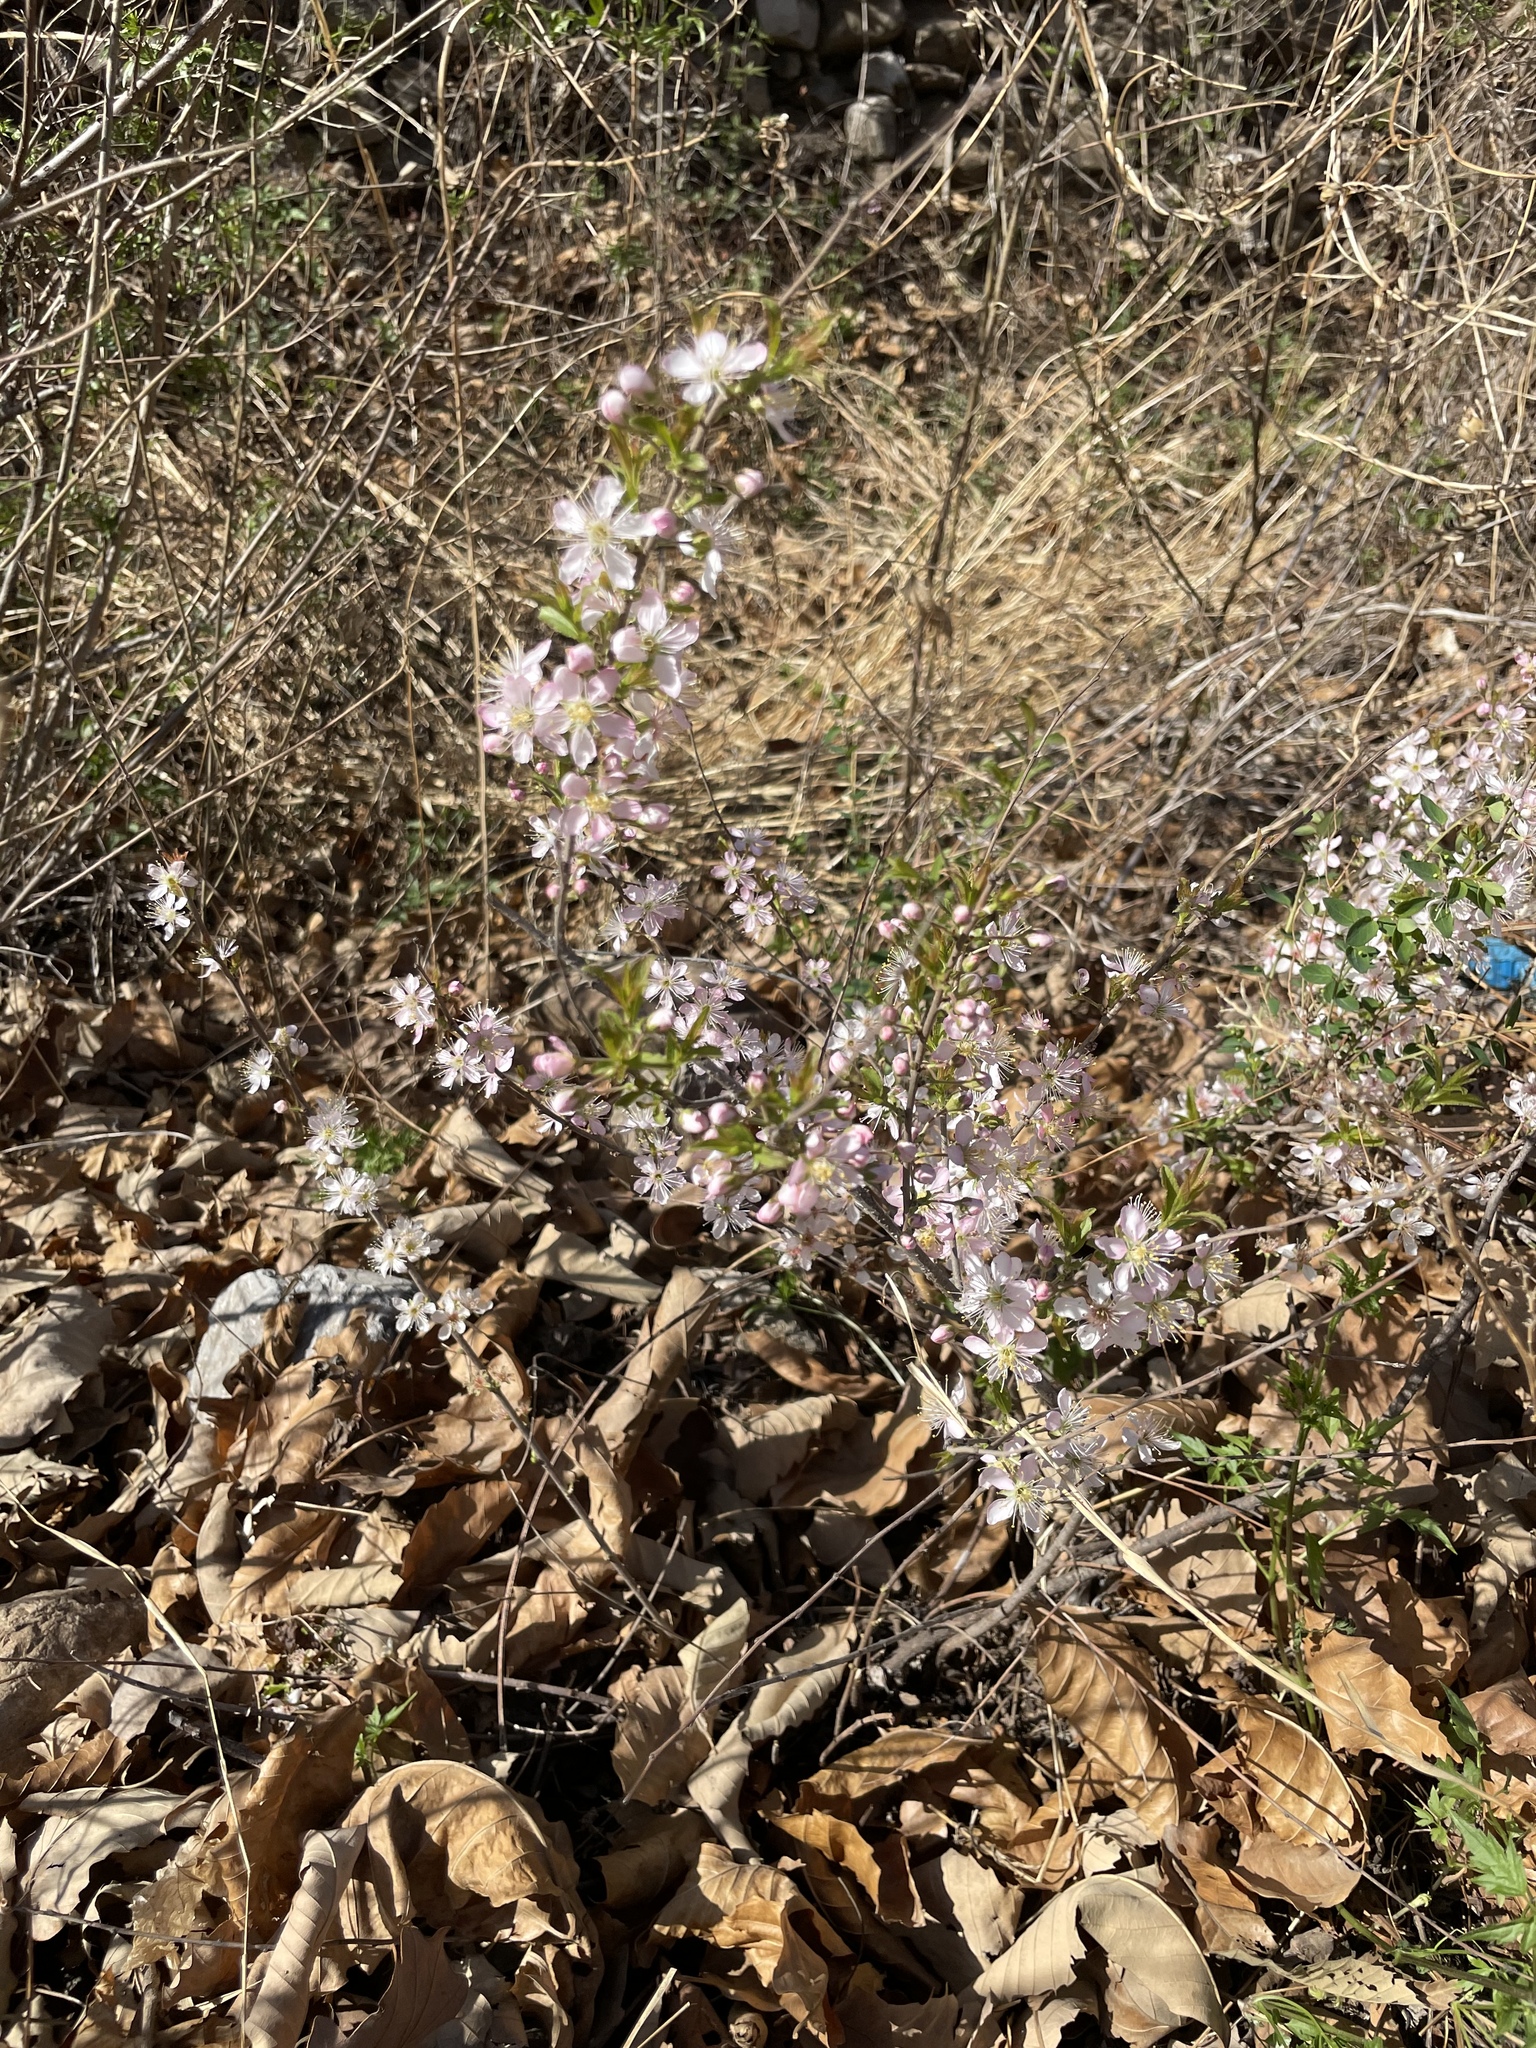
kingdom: Plantae
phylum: Tracheophyta
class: Magnoliopsida
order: Rosales
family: Rosaceae
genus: Prunus
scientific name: Prunus humilis
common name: Humble bush cherry
